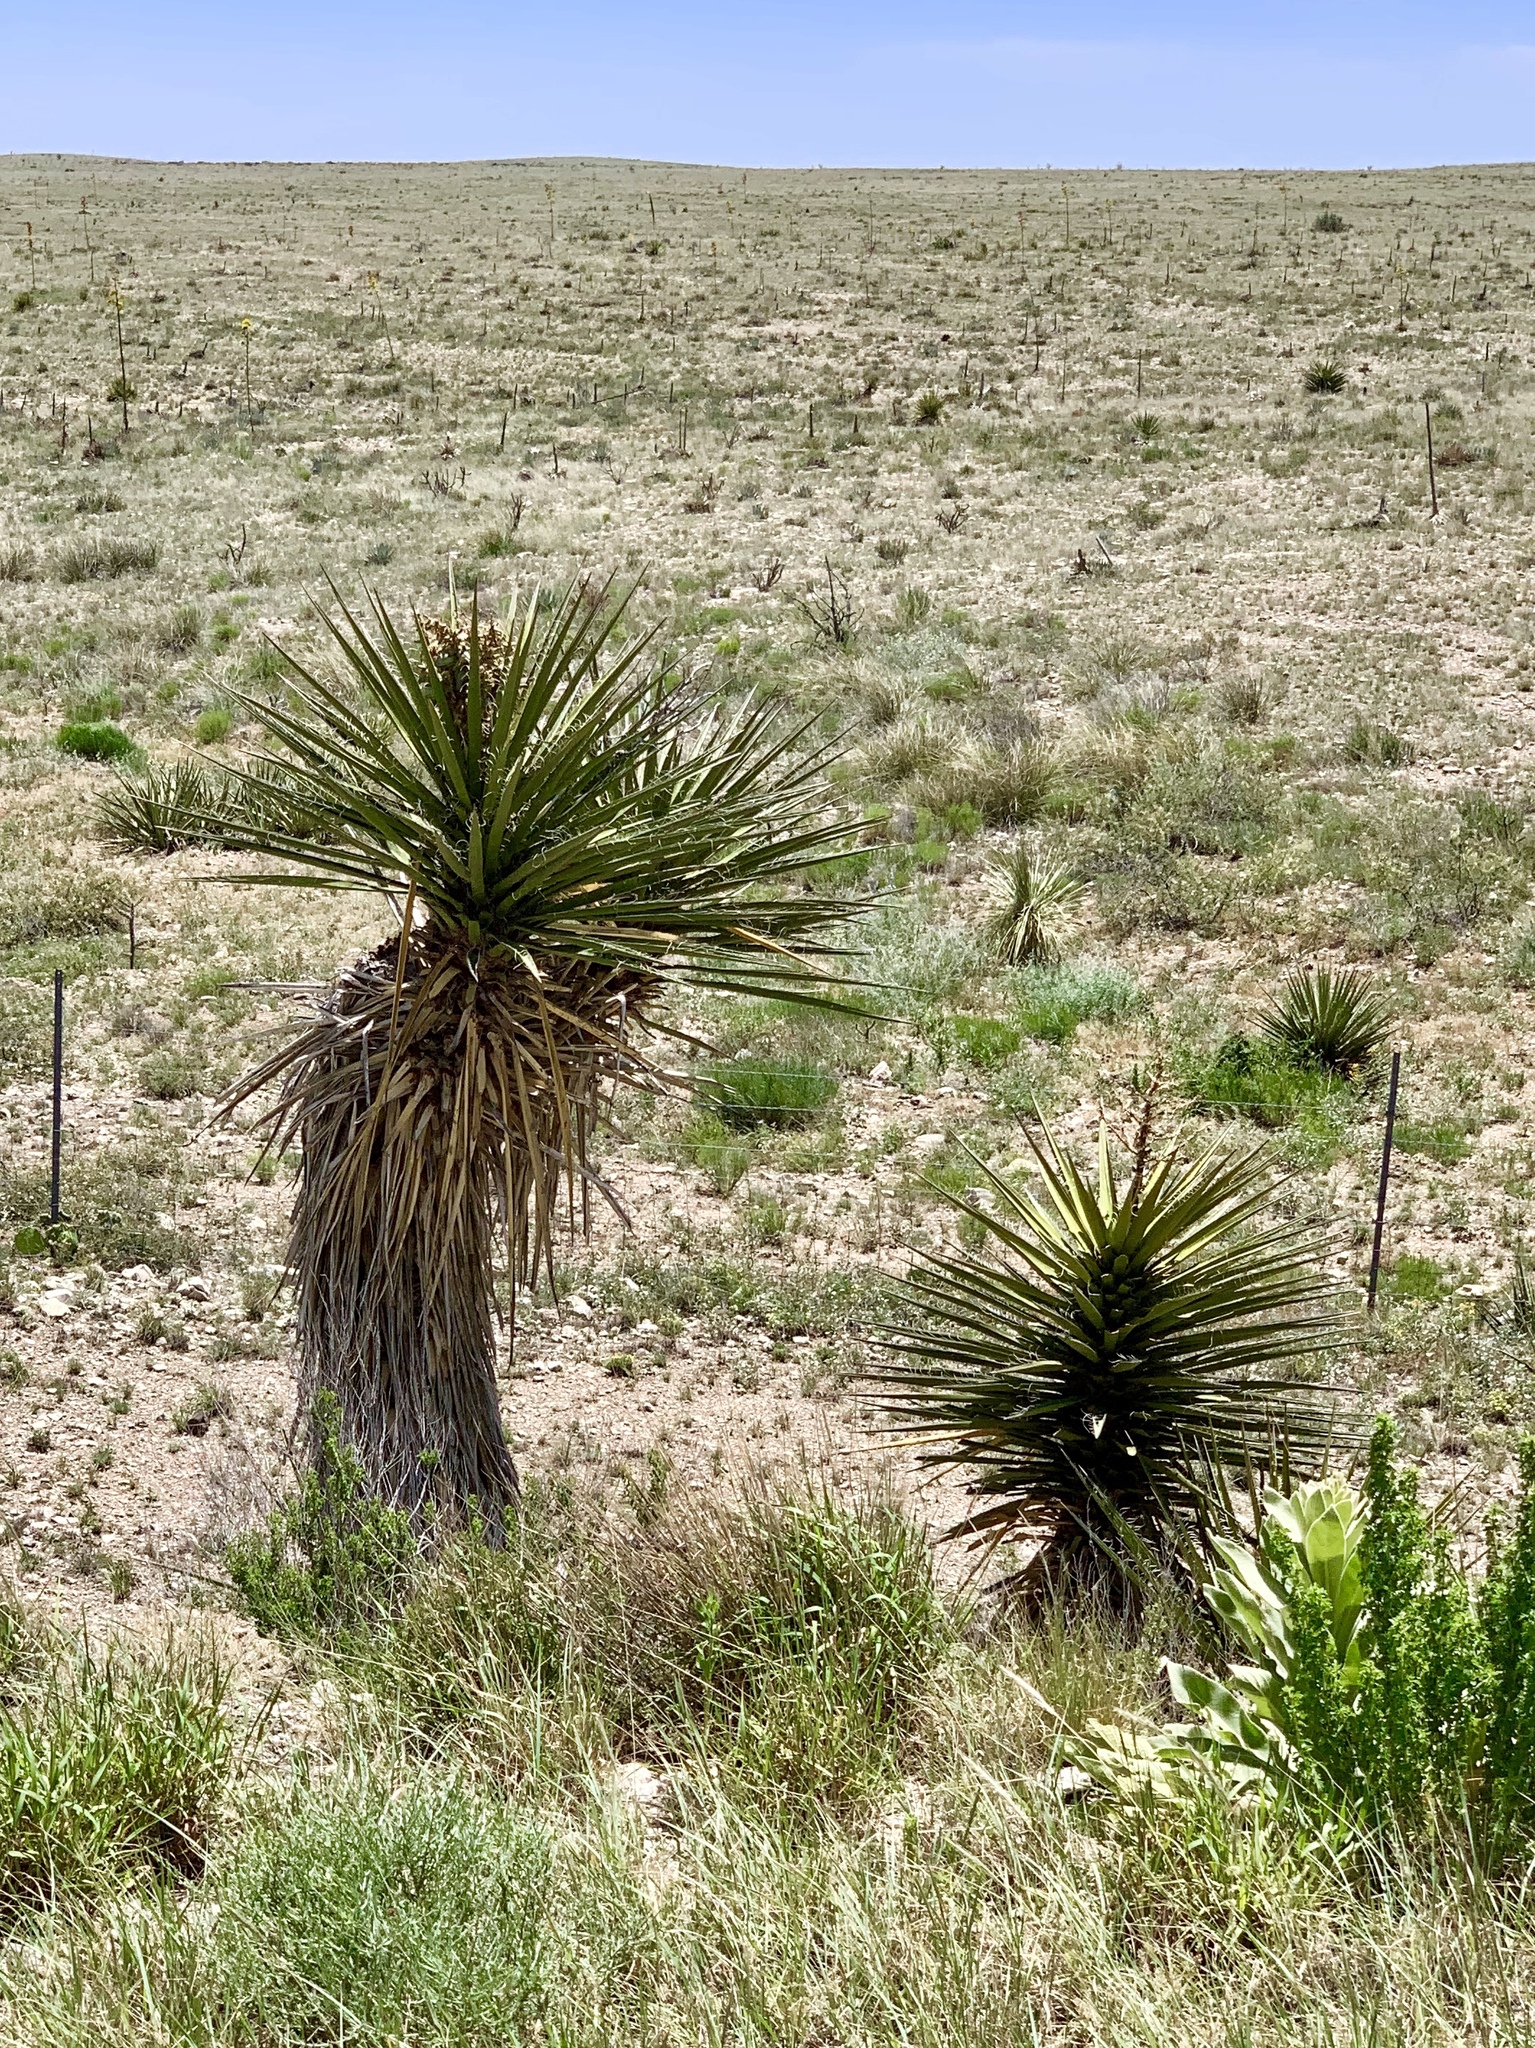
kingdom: Plantae
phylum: Tracheophyta
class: Liliopsida
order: Asparagales
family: Asparagaceae
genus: Yucca
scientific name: Yucca treculiana
